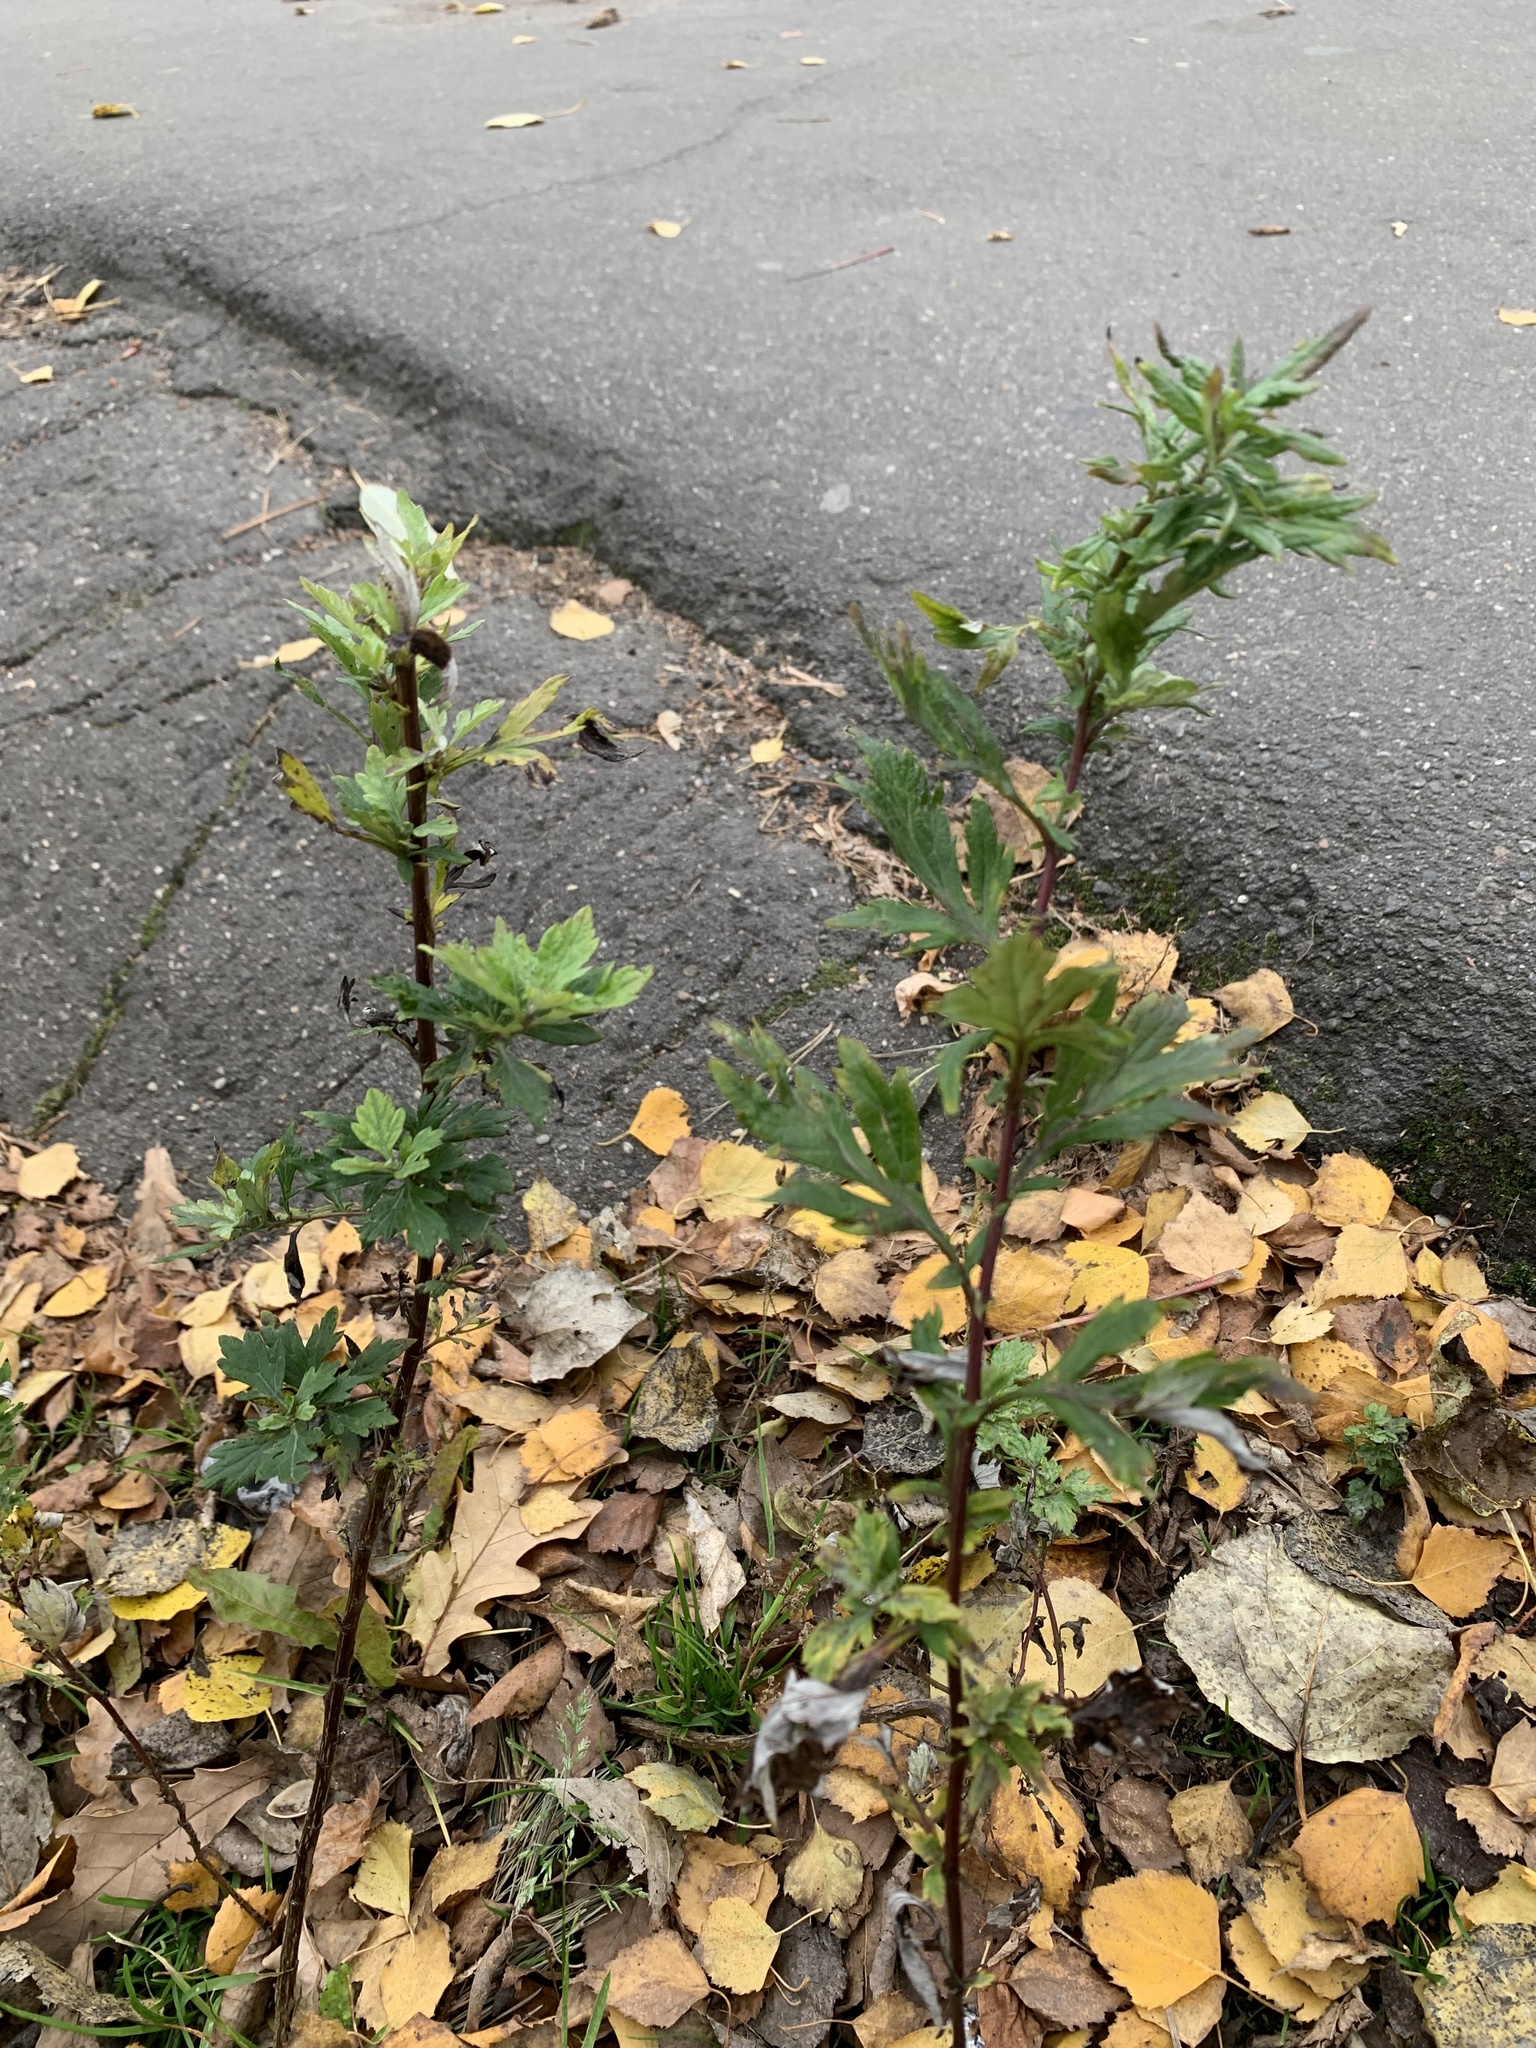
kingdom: Plantae
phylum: Tracheophyta
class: Magnoliopsida
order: Asterales
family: Asteraceae
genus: Artemisia
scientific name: Artemisia vulgaris
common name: Mugwort
